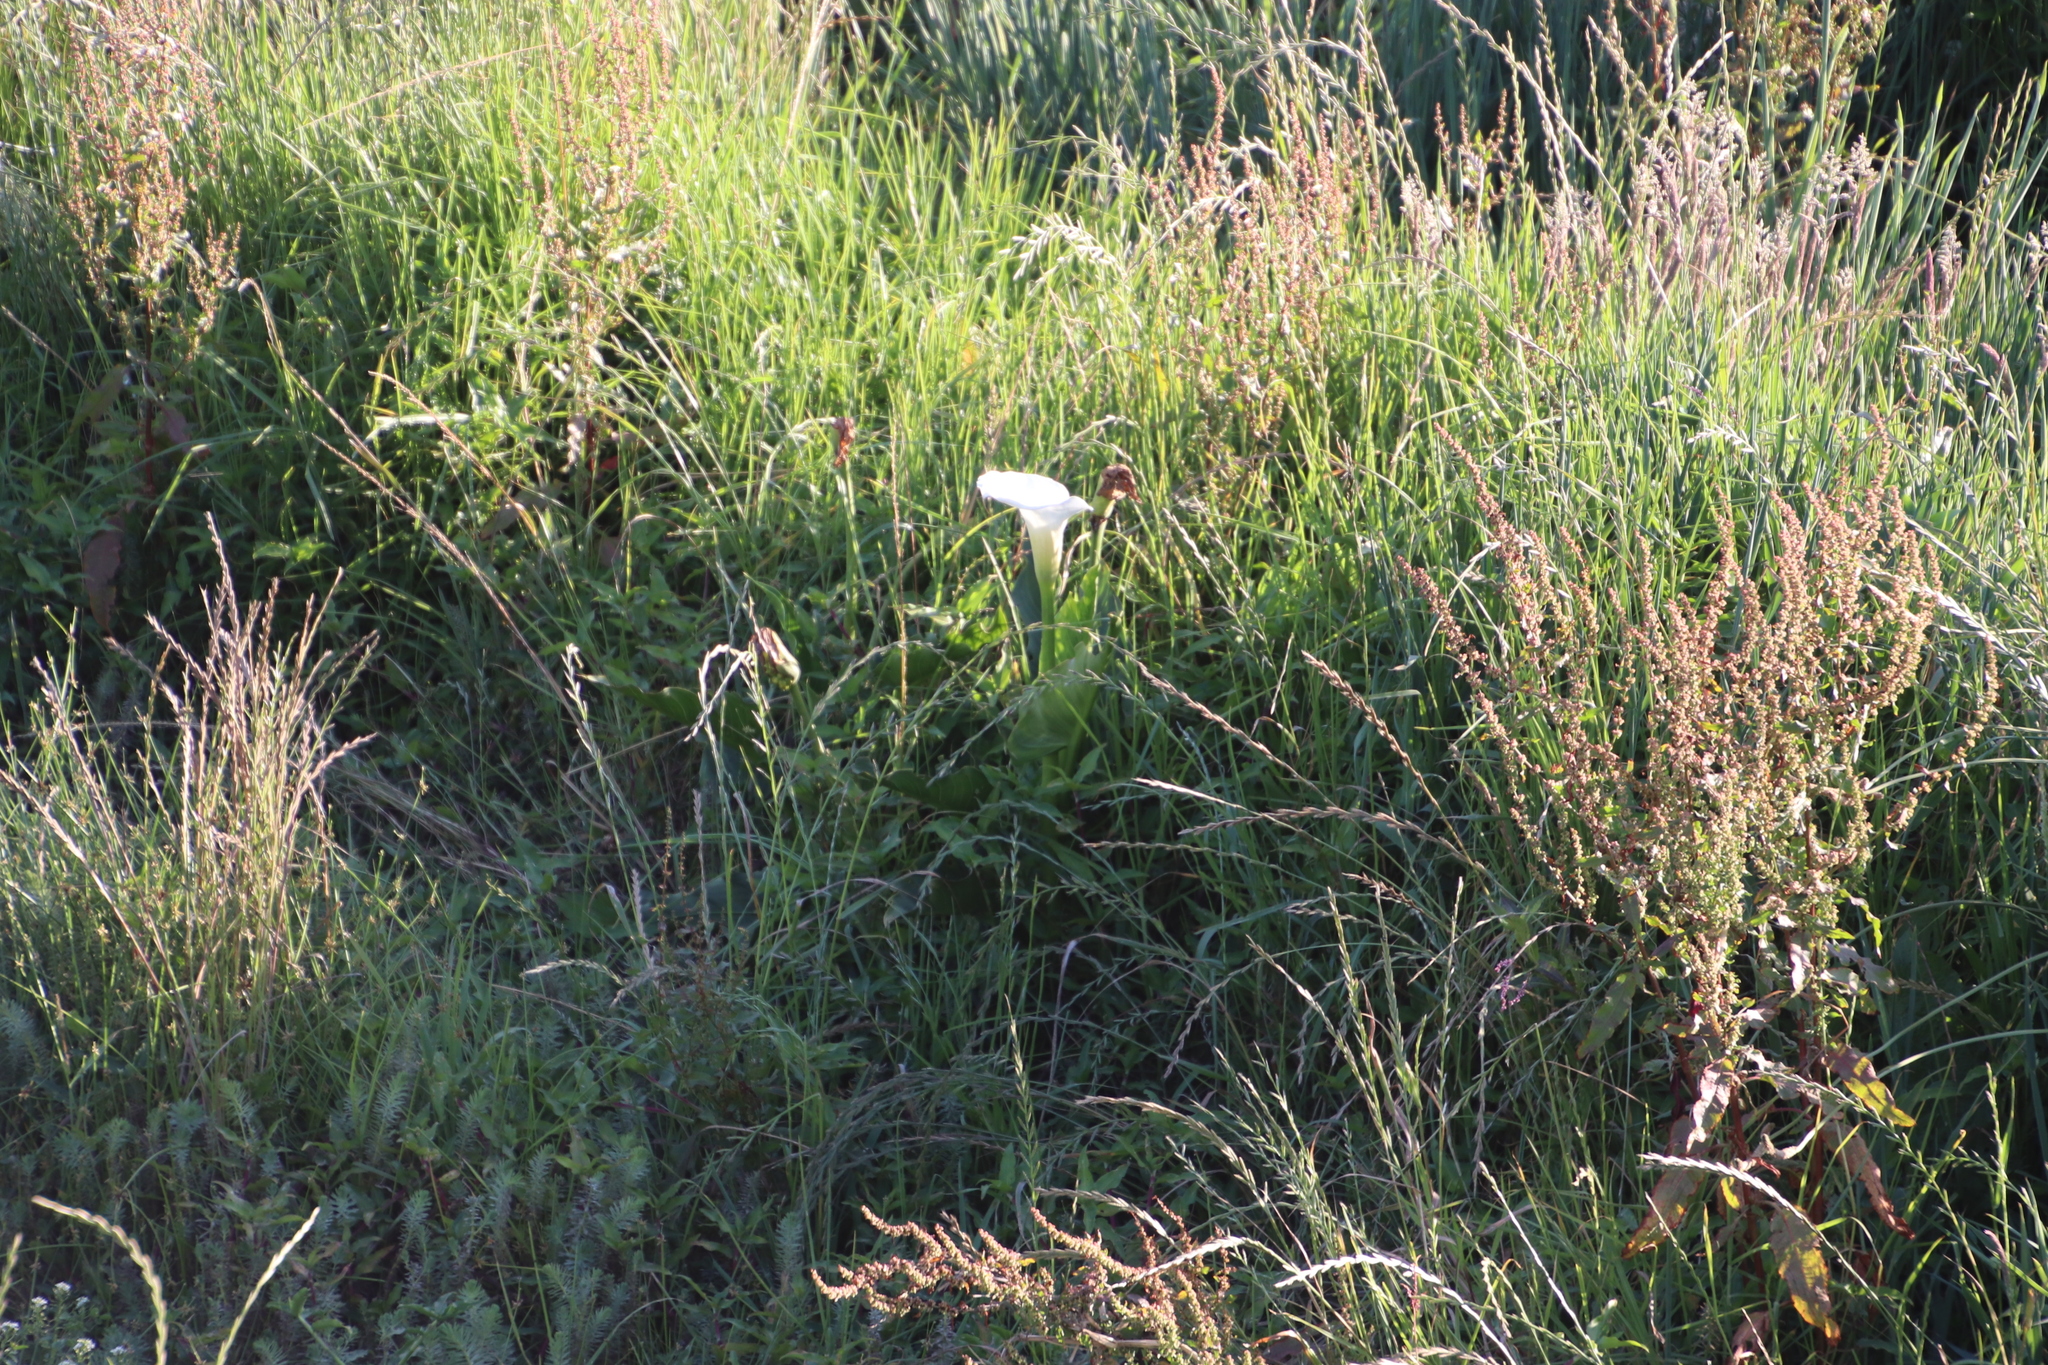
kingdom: Plantae
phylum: Tracheophyta
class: Liliopsida
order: Alismatales
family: Araceae
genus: Zantedeschia
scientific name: Zantedeschia aethiopica
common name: Altar-lily
